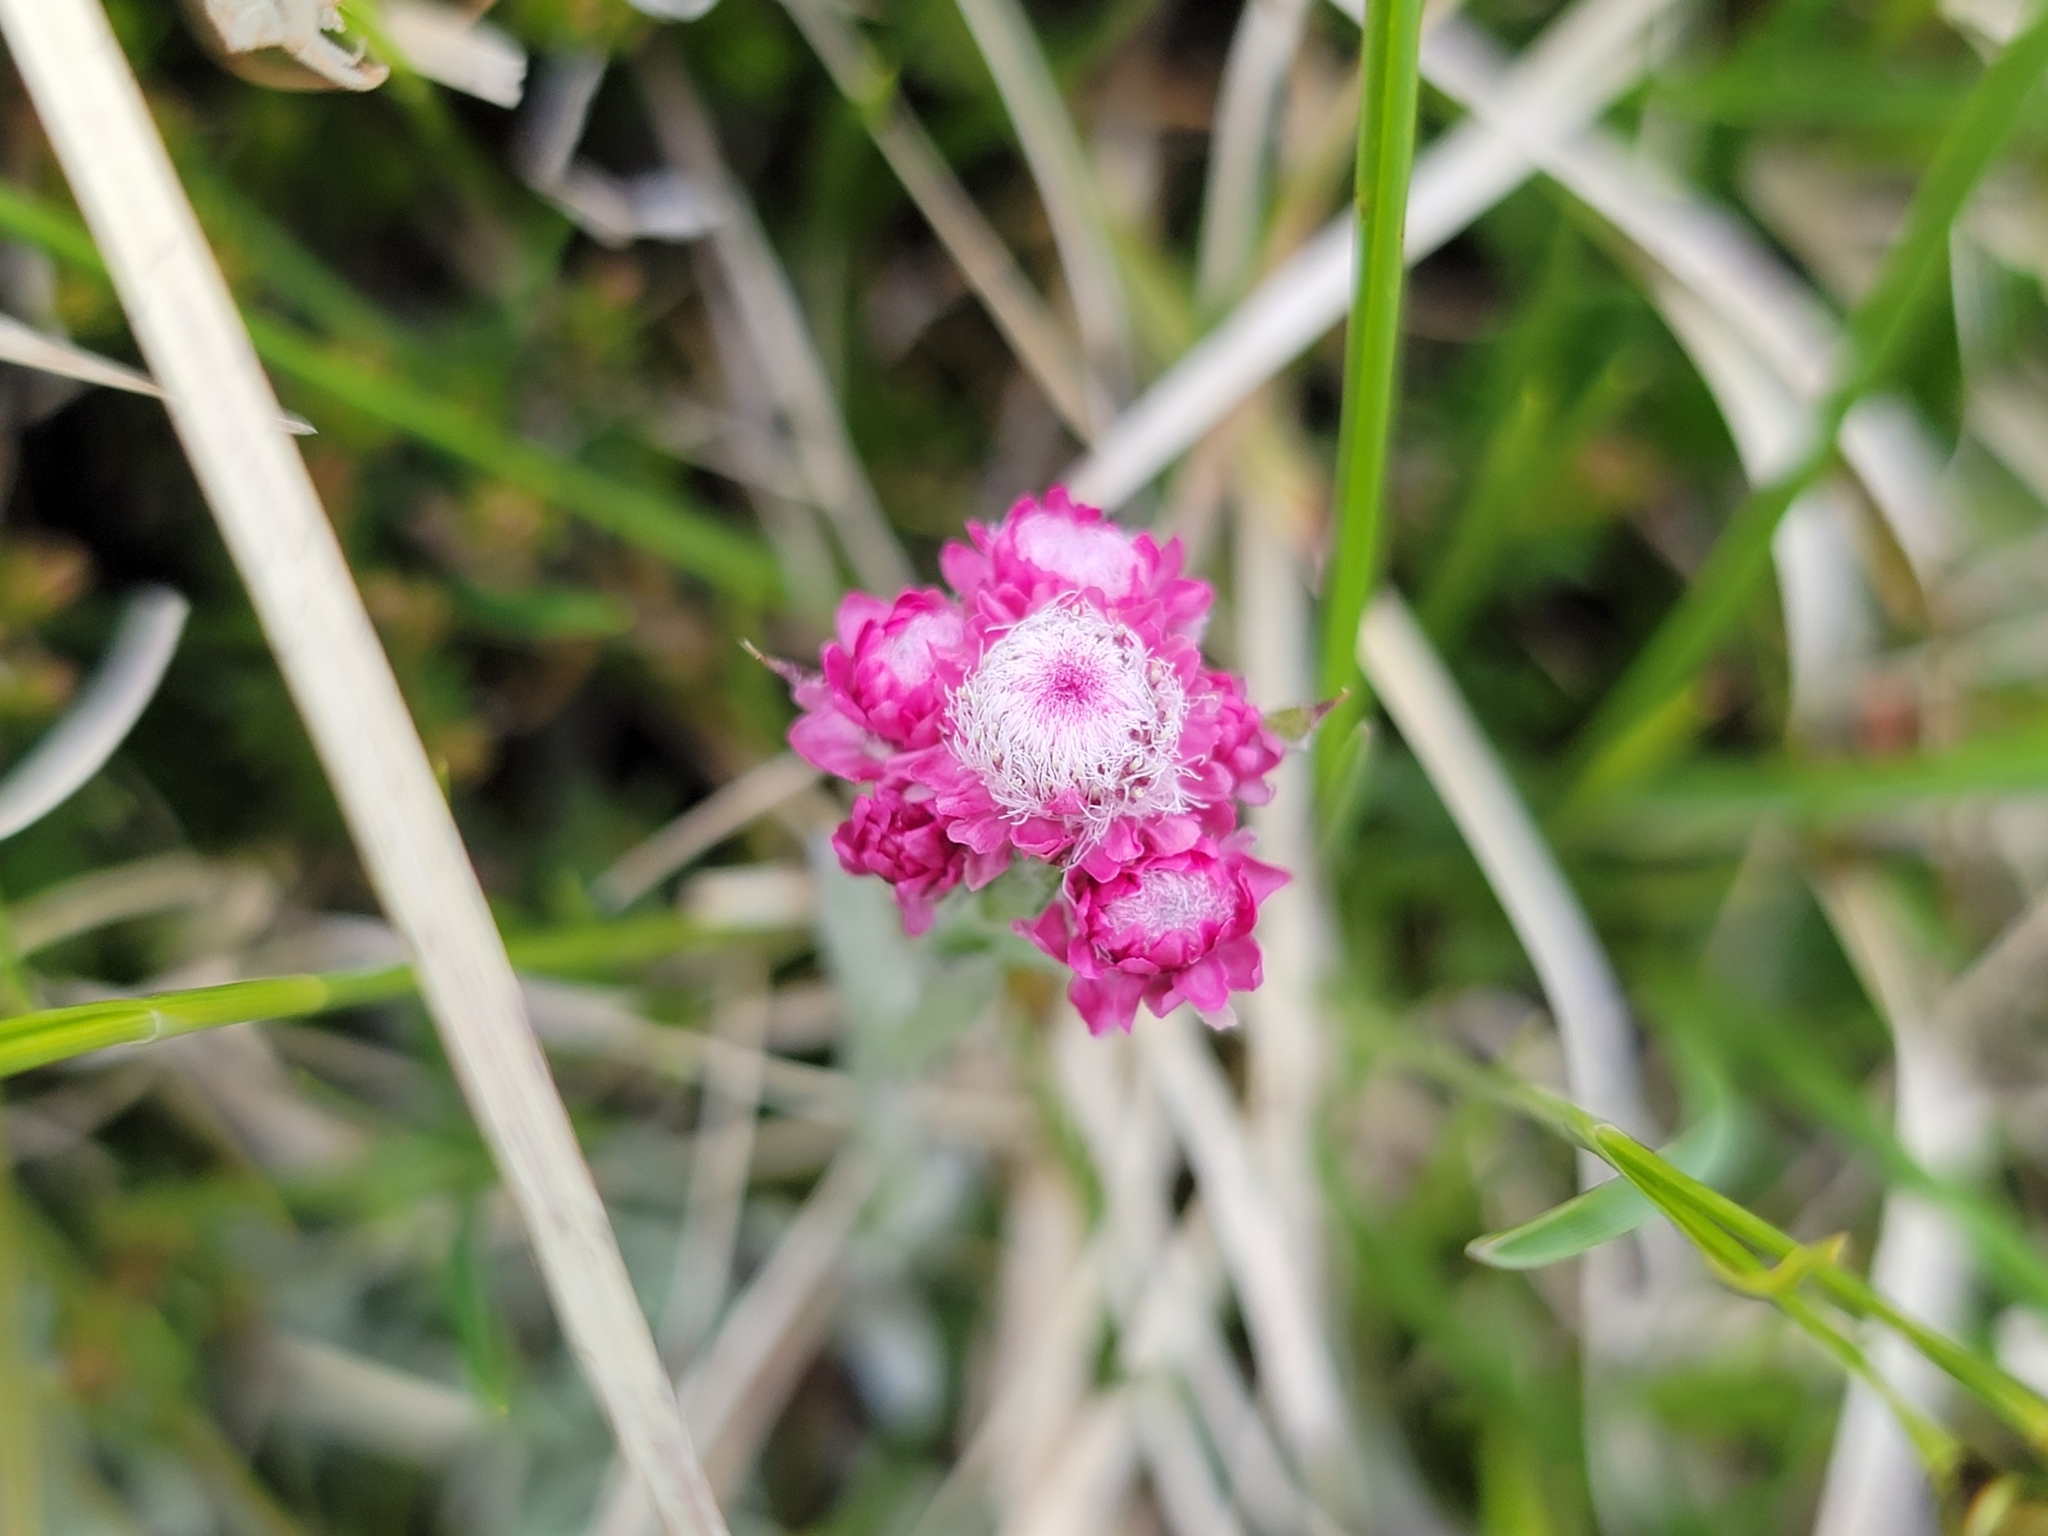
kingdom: Plantae
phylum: Tracheophyta
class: Magnoliopsida
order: Asterales
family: Asteraceae
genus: Antennaria
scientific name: Antennaria dioica
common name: Mountain everlasting
